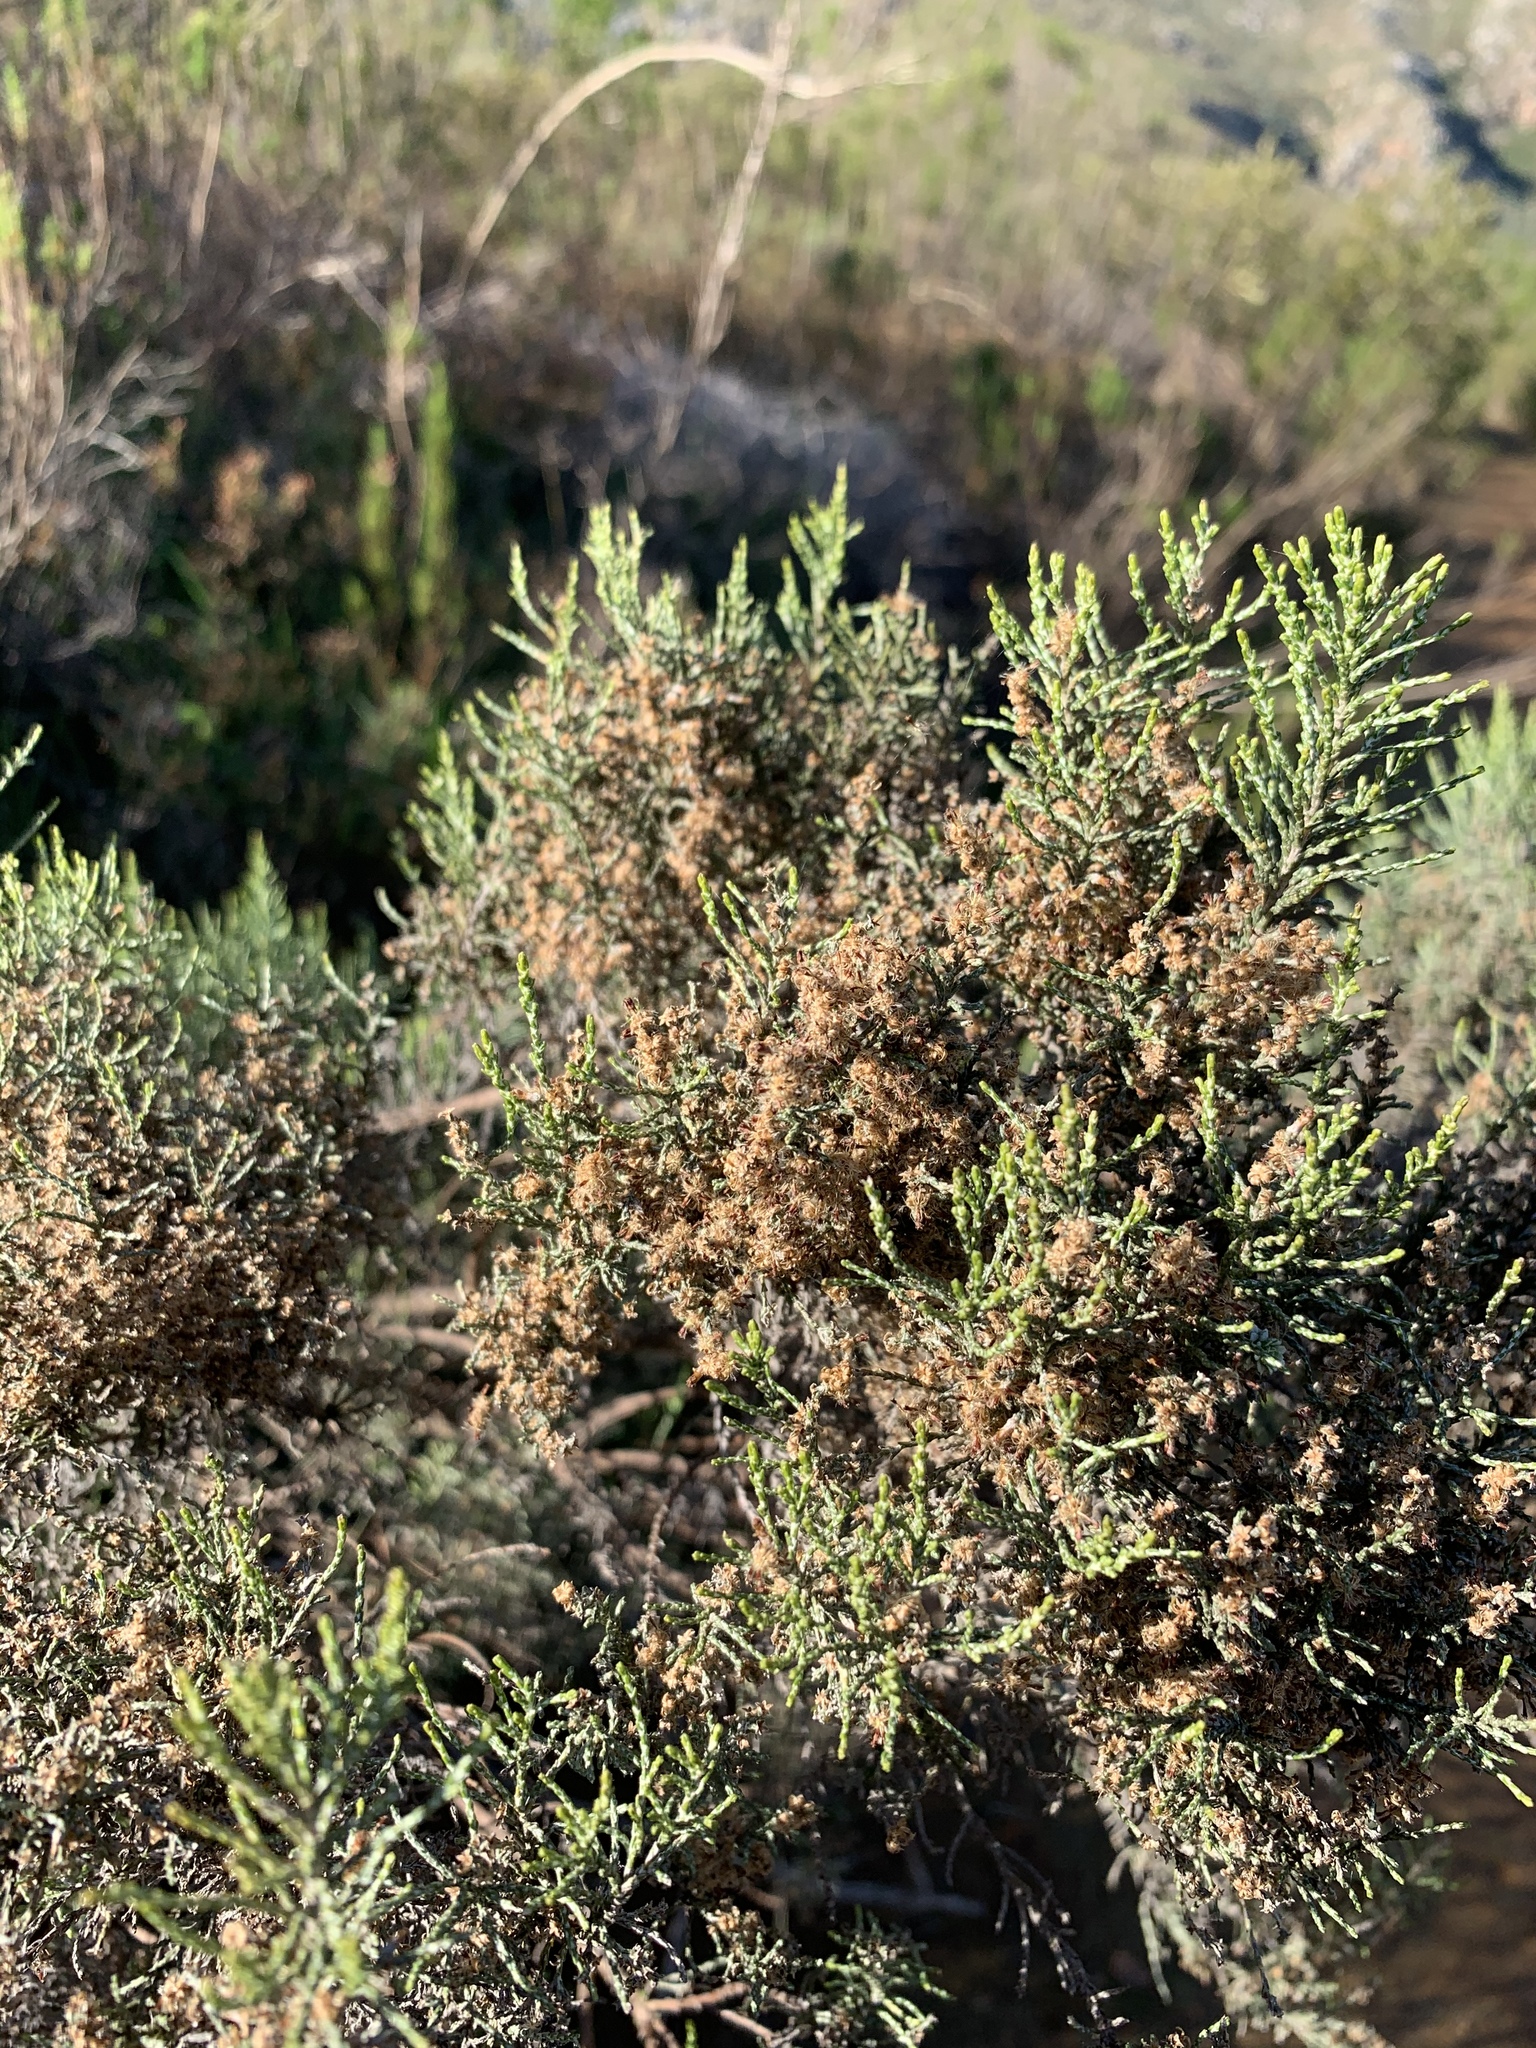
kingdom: Plantae
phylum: Tracheophyta
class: Magnoliopsida
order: Asterales
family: Asteraceae
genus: Dicerothamnus
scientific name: Dicerothamnus rhinocerotis
